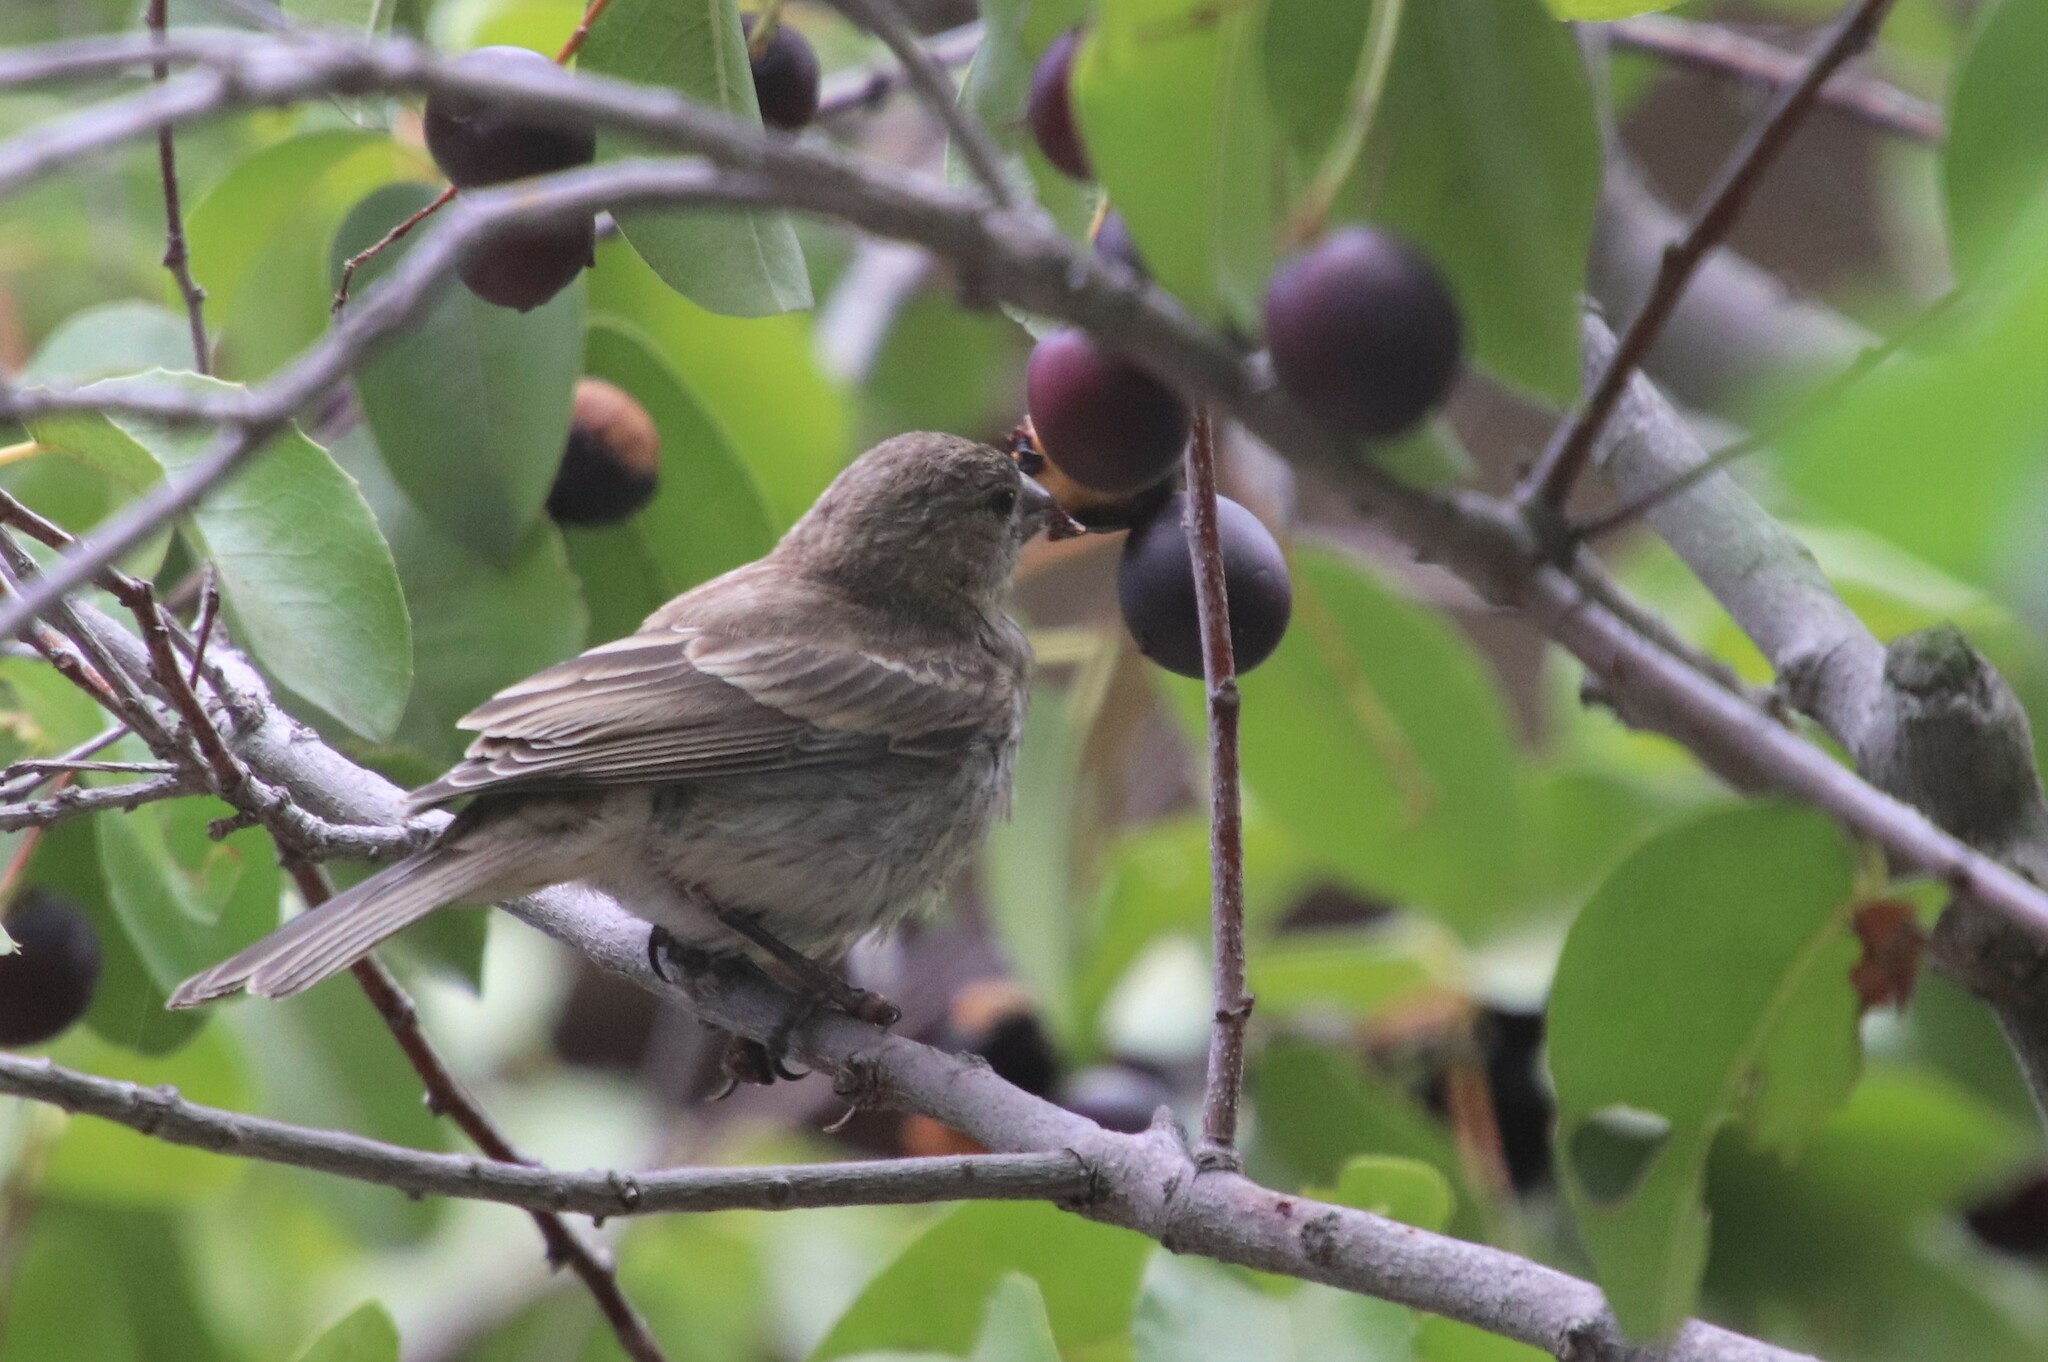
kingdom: Animalia
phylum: Chordata
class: Aves
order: Passeriformes
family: Fringillidae
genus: Haemorhous
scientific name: Haemorhous mexicanus
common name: House finch
